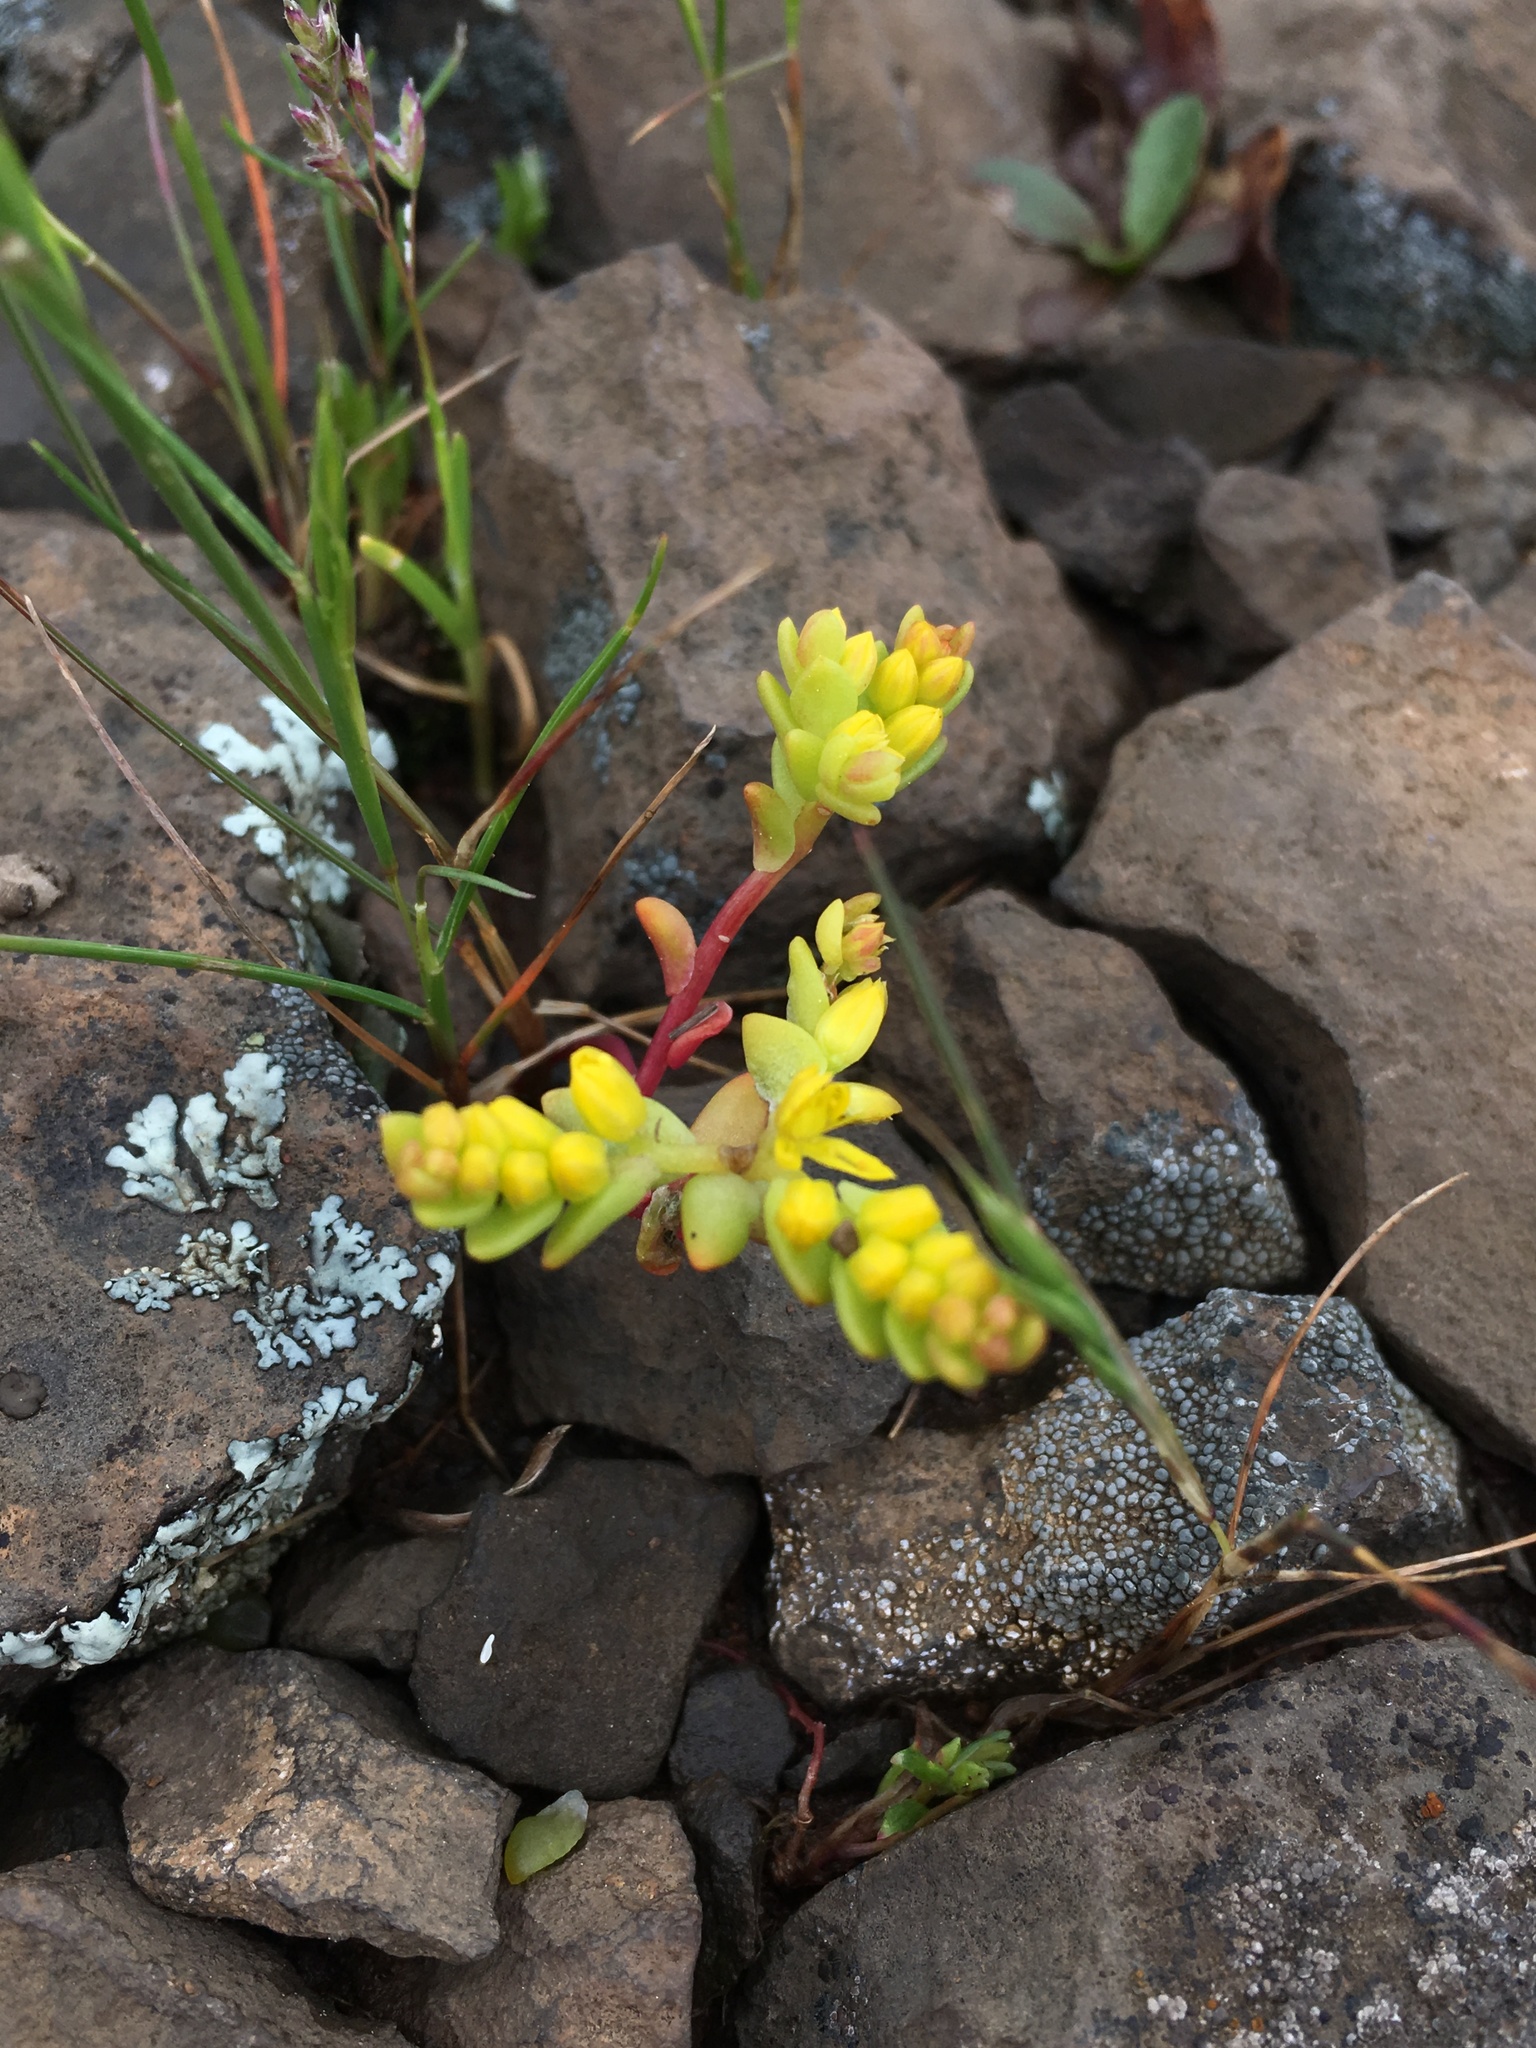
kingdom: Plantae
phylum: Tracheophyta
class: Magnoliopsida
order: Saxifragales
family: Crassulaceae
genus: Sedella
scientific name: Sedella pumila
